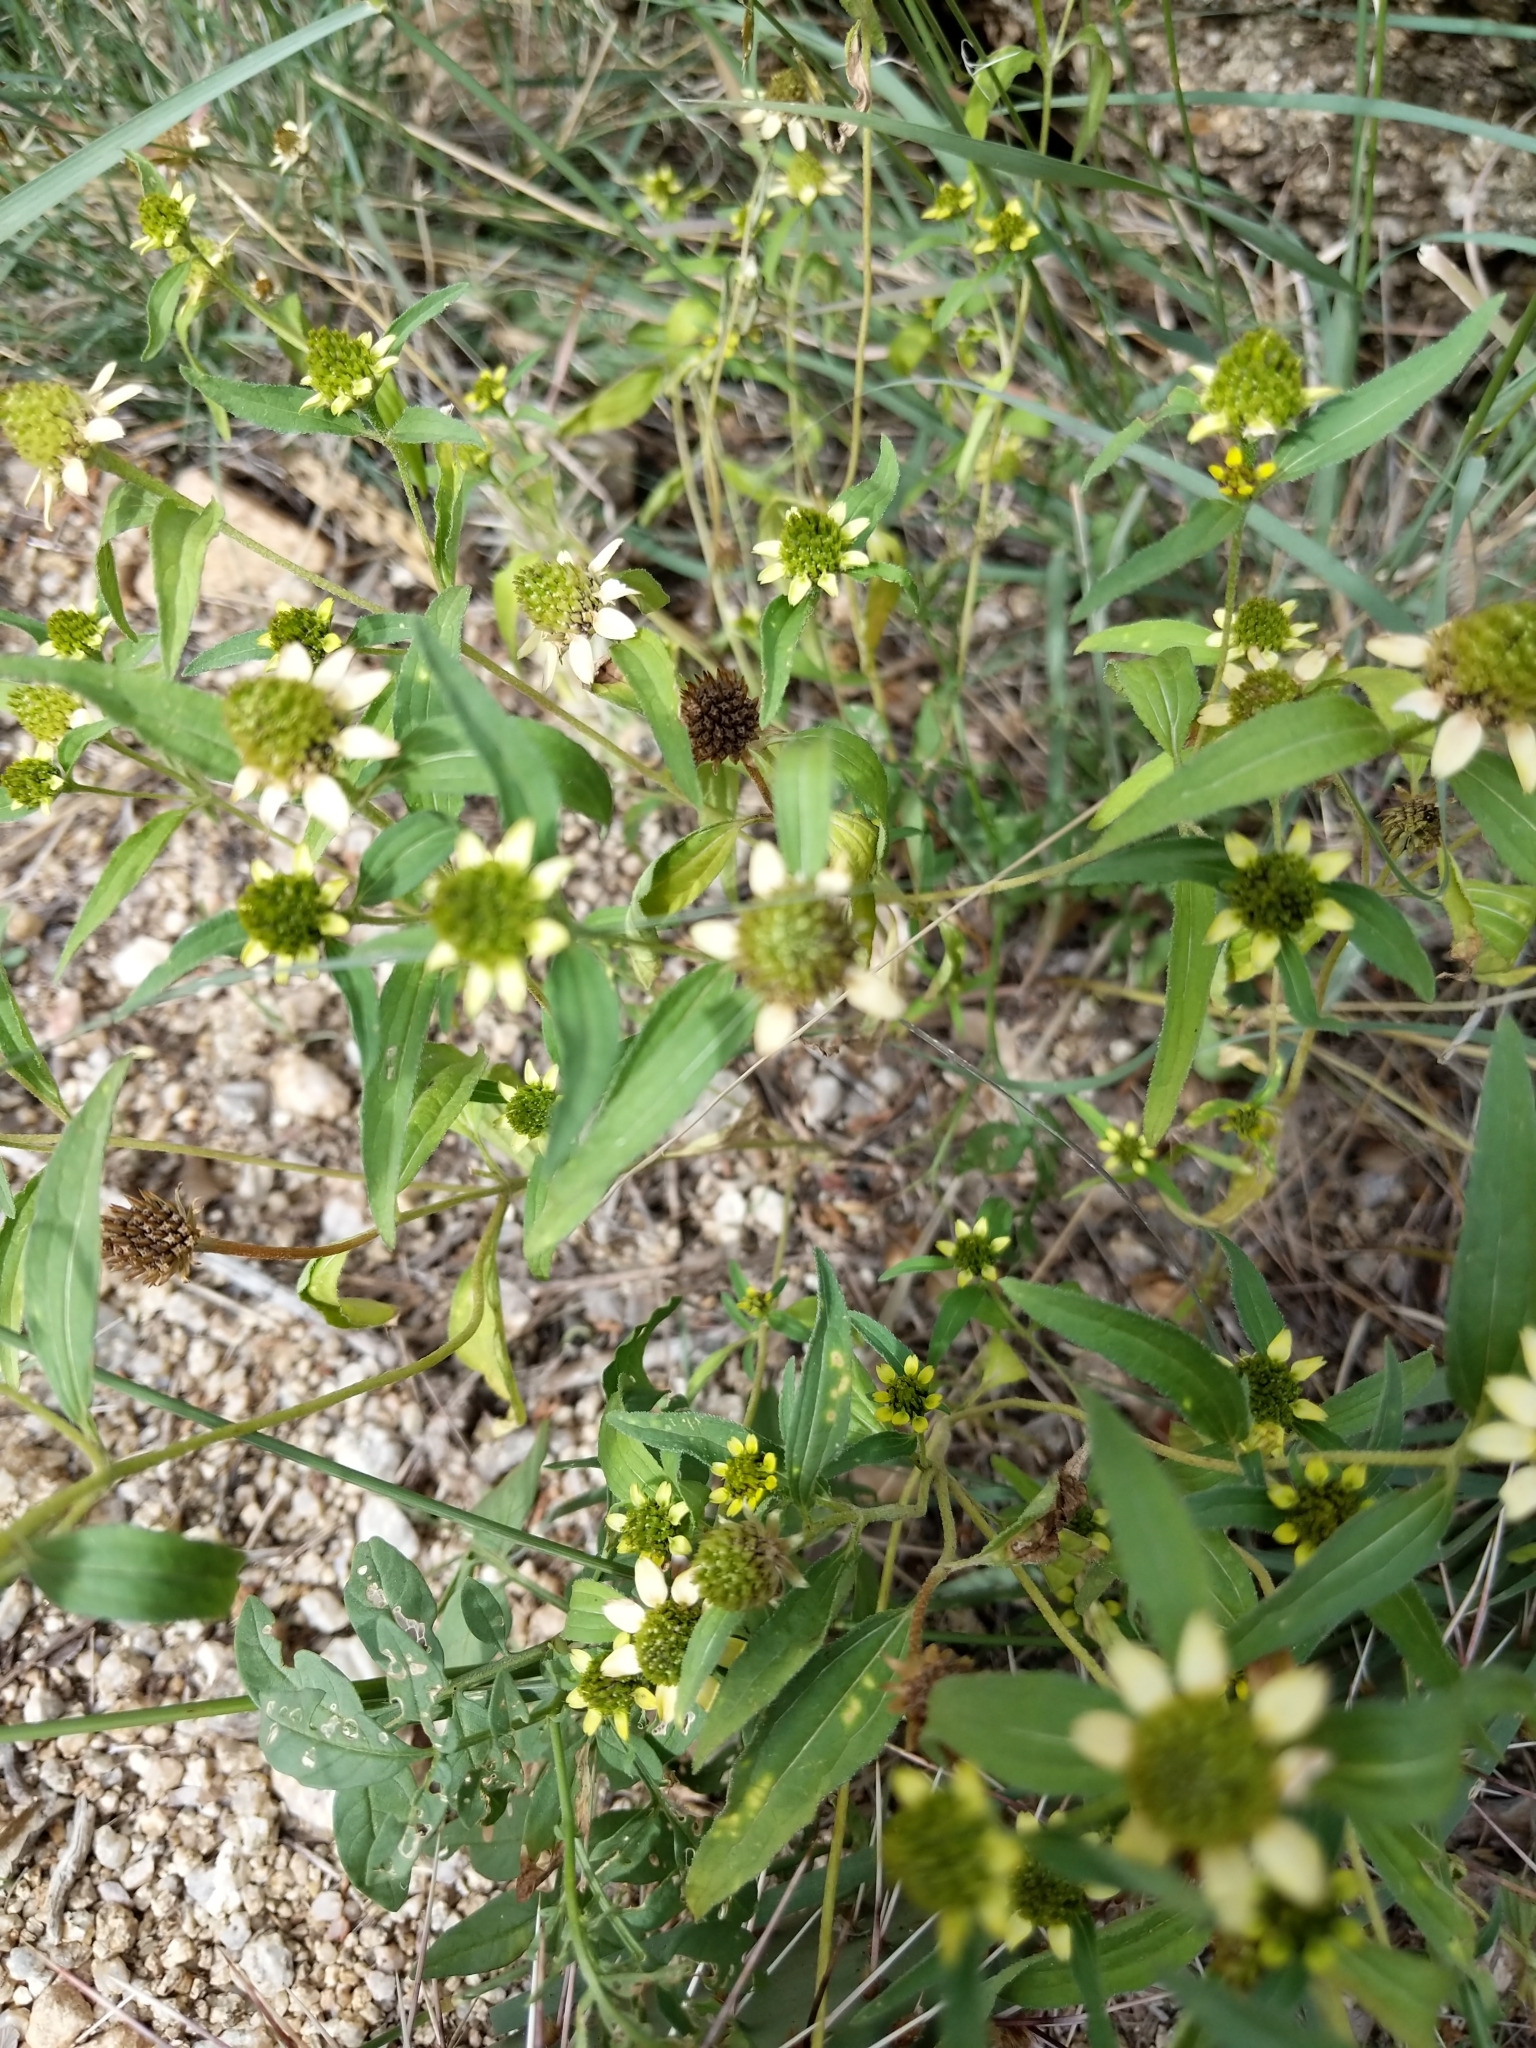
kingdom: Plantae
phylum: Tracheophyta
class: Magnoliopsida
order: Asterales
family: Asteraceae
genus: Sanvitalia
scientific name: Sanvitalia abertii
